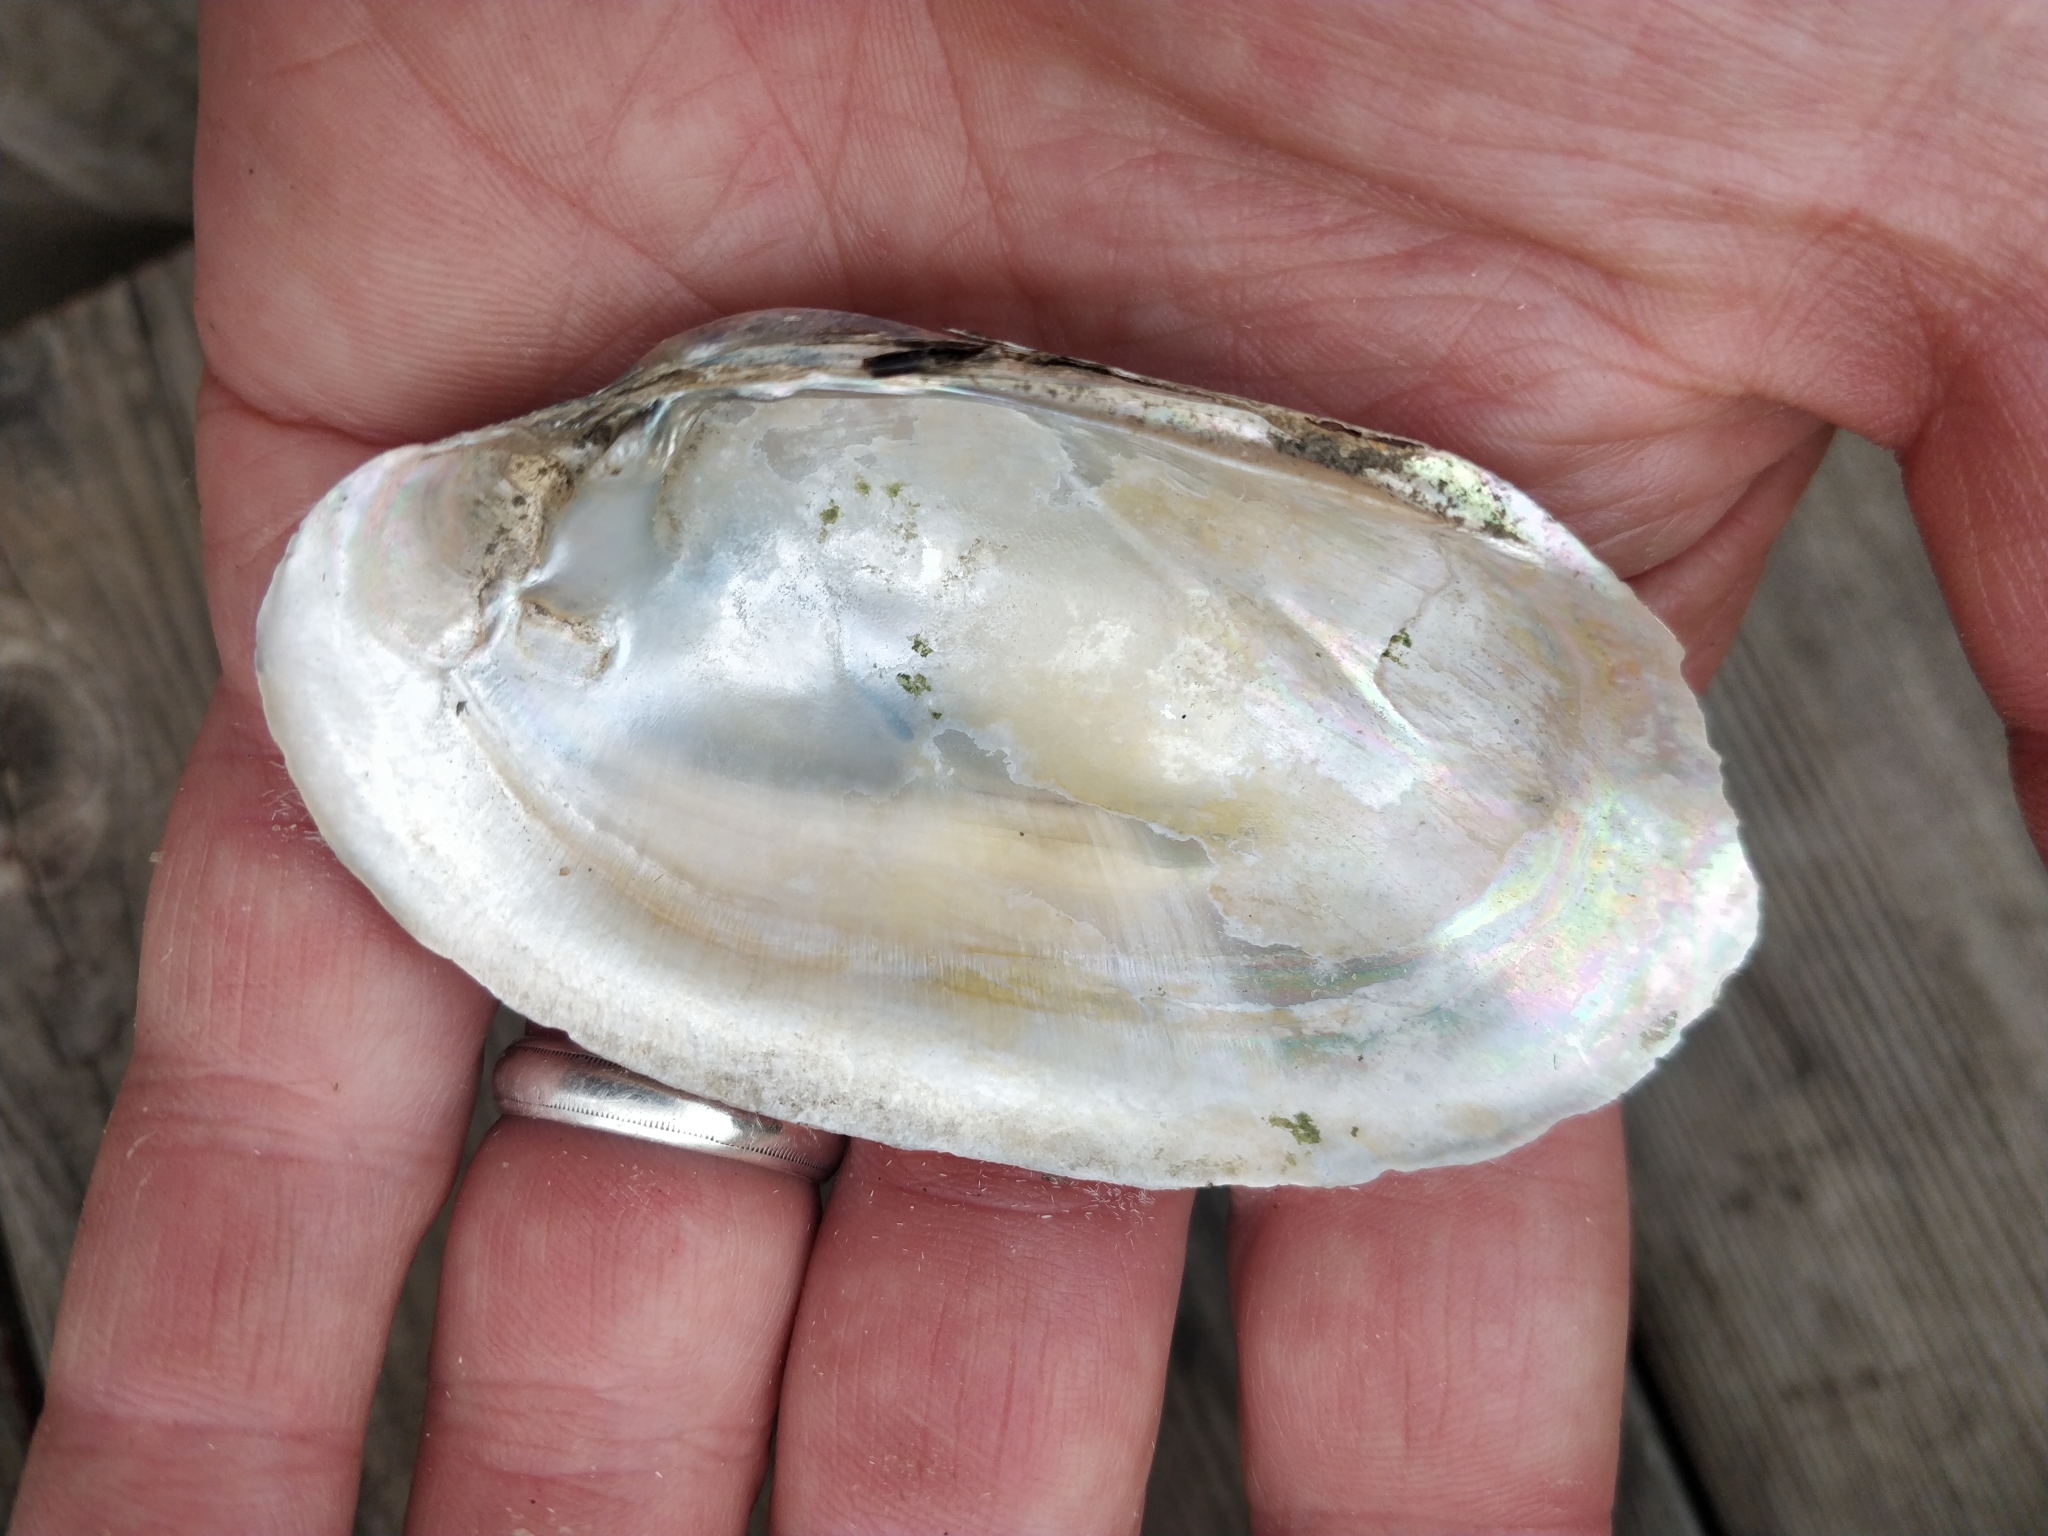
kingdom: Animalia
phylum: Mollusca
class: Bivalvia
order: Unionida
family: Unionidae
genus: Lampsilis
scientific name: Lampsilis siliquoidea
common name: Fatmucket
